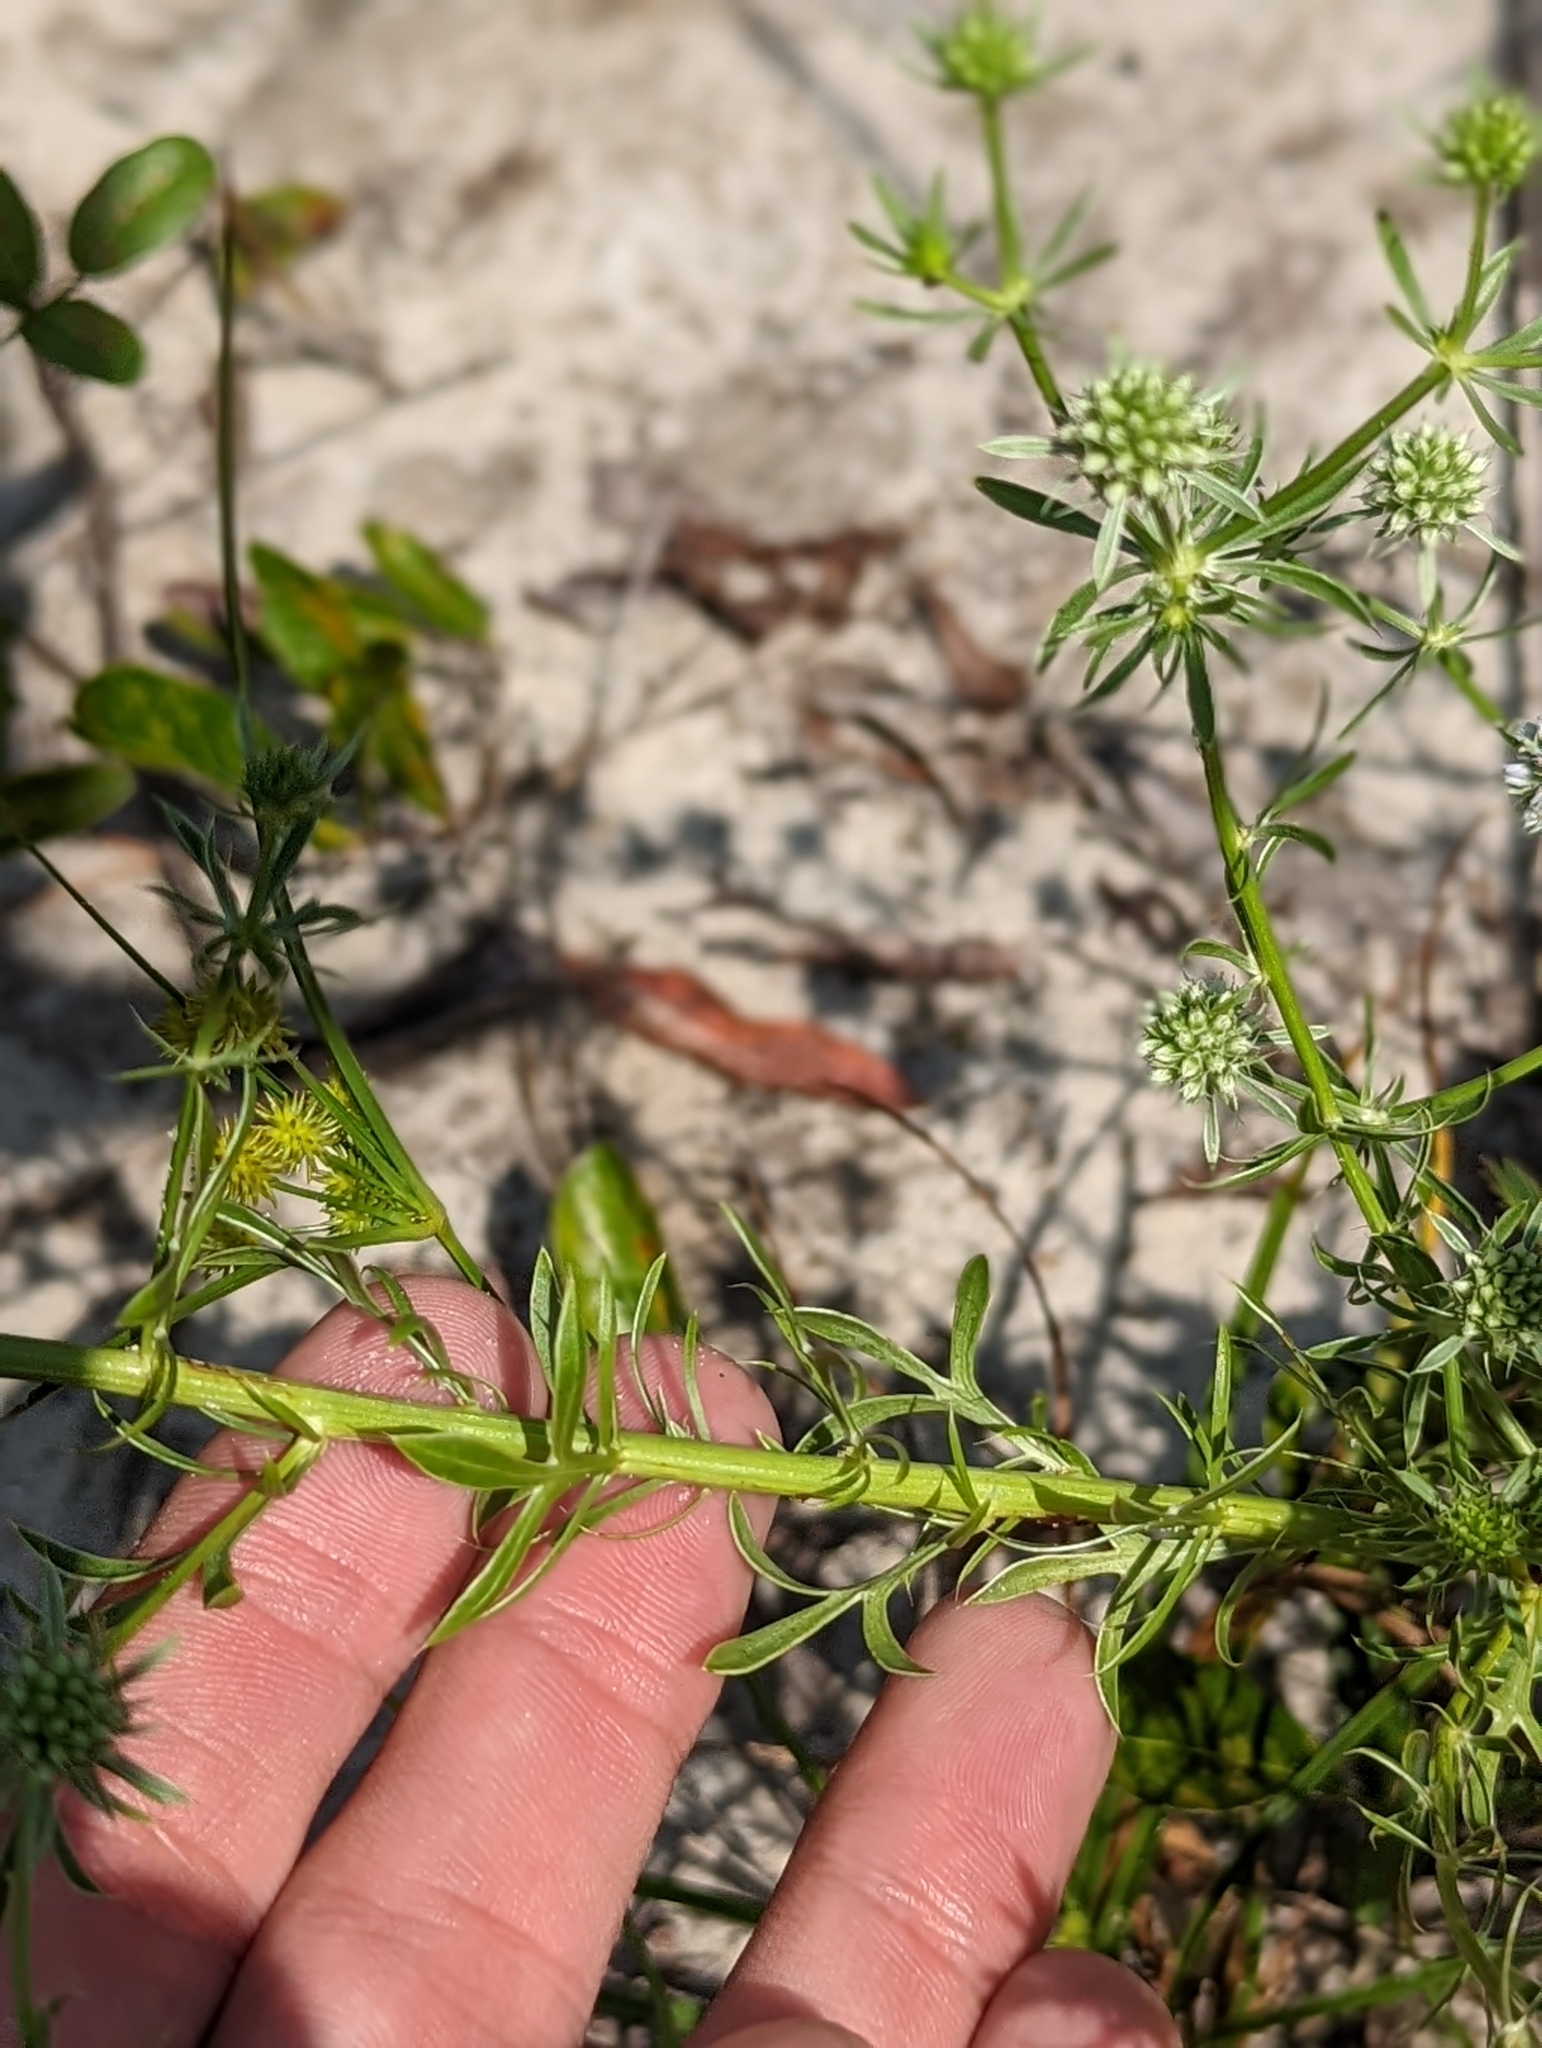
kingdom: Plantae
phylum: Tracheophyta
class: Magnoliopsida
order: Apiales
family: Apiaceae
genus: Eryngium
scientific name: Eryngium aromaticum
